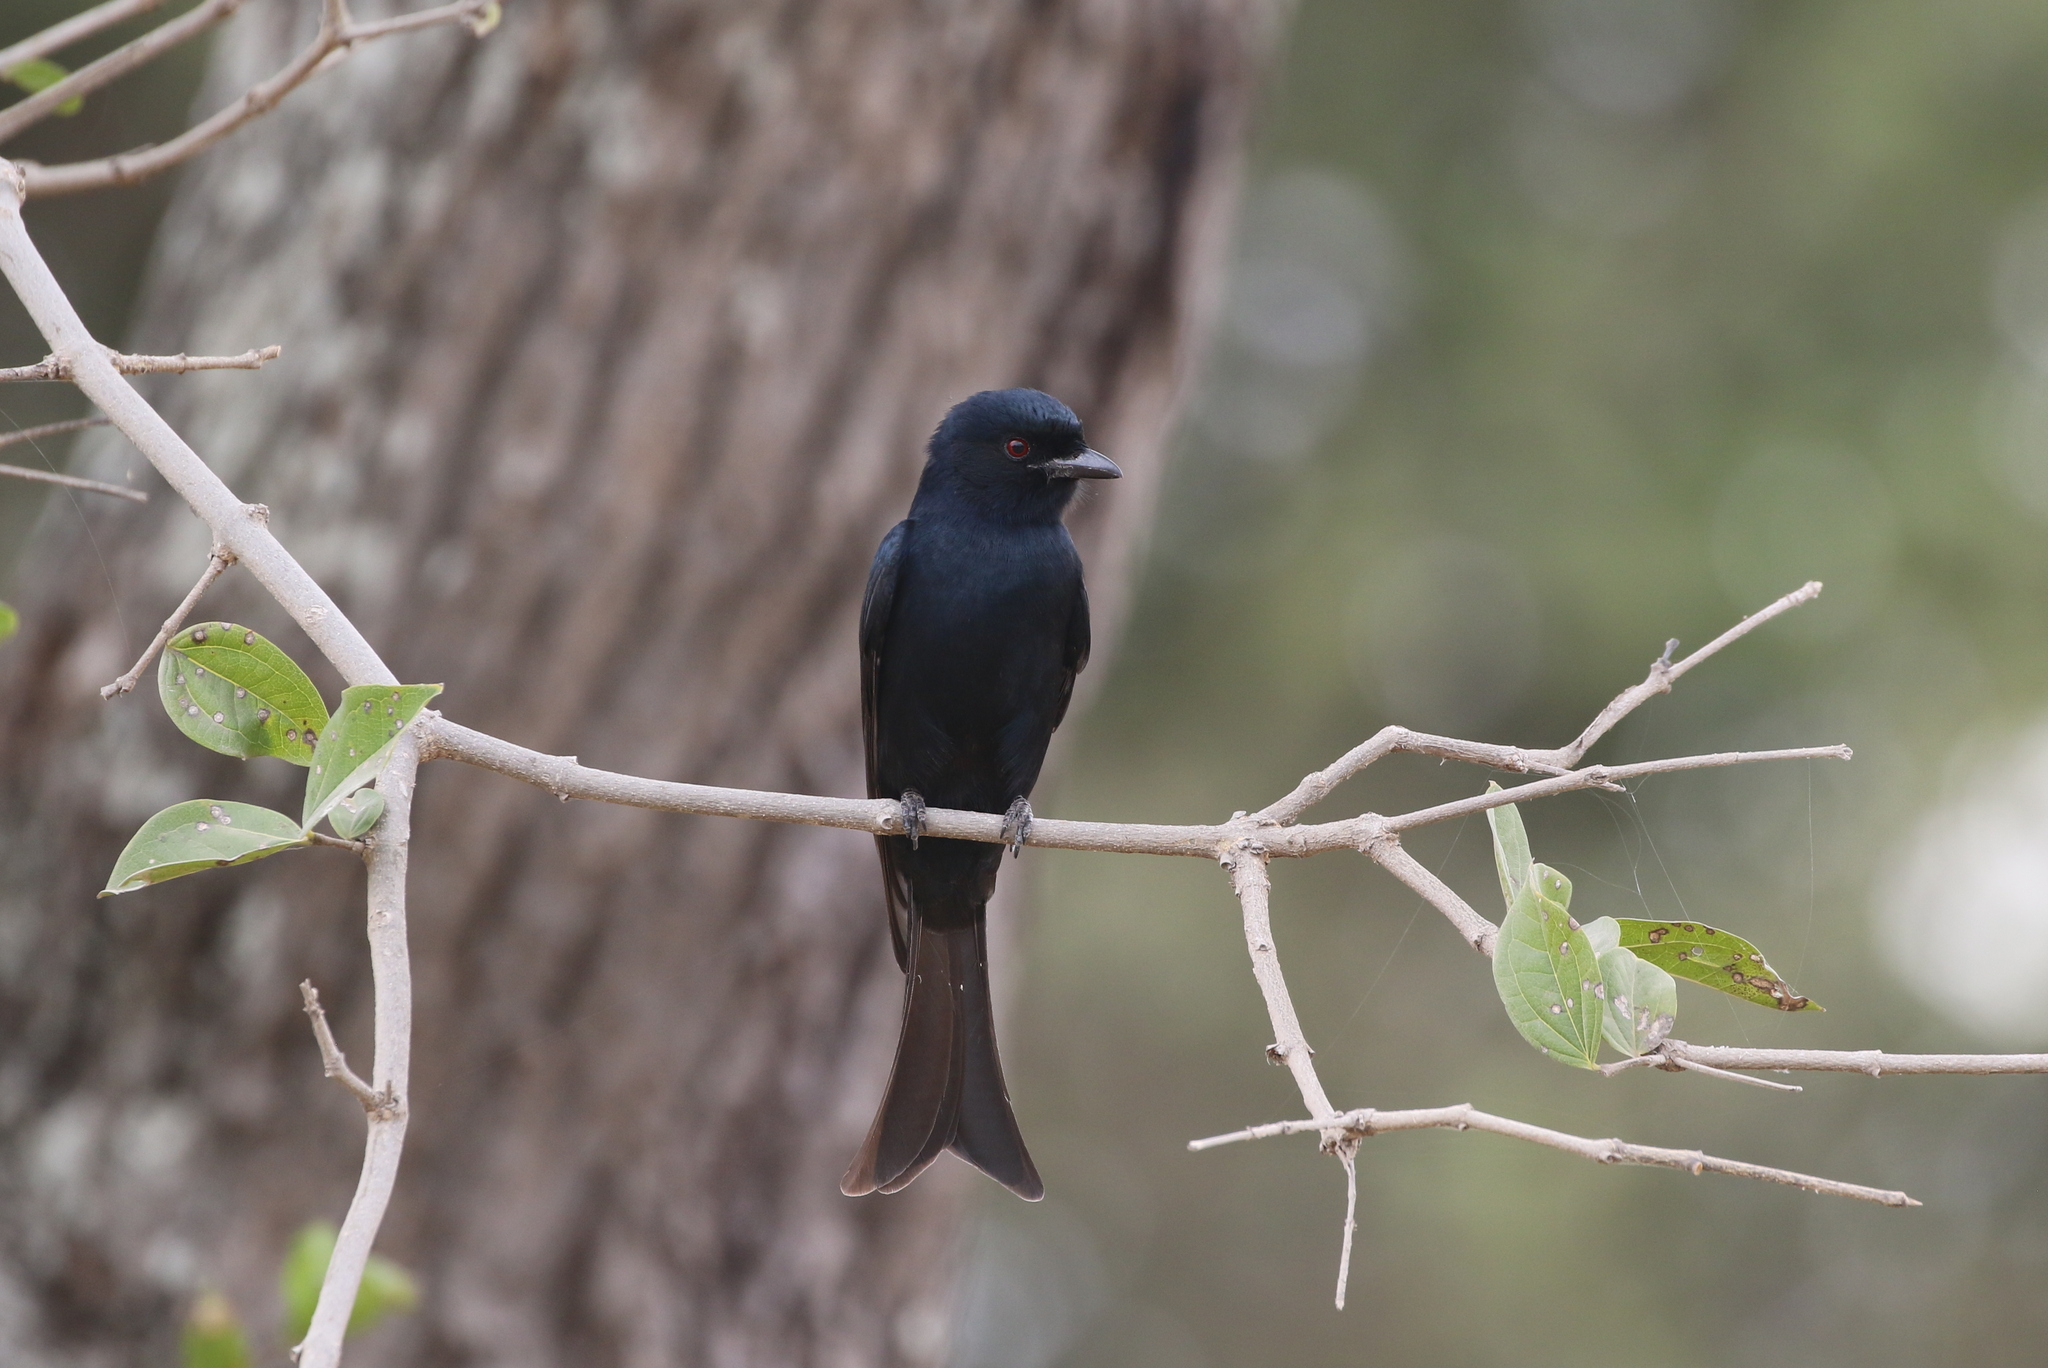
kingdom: Animalia
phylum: Chordata
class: Aves
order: Passeriformes
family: Dicruridae
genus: Dicrurus
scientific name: Dicrurus adsimilis
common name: Fork-tailed drongo
